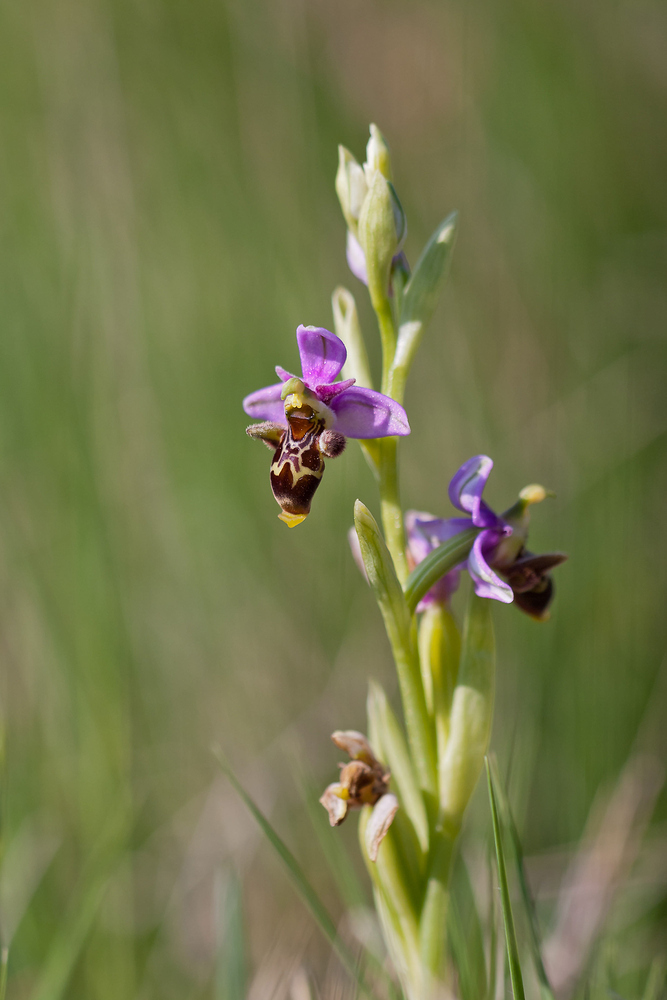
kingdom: Plantae
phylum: Tracheophyta
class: Liliopsida
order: Asparagales
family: Orchidaceae
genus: Ophrys
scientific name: Ophrys scolopax
